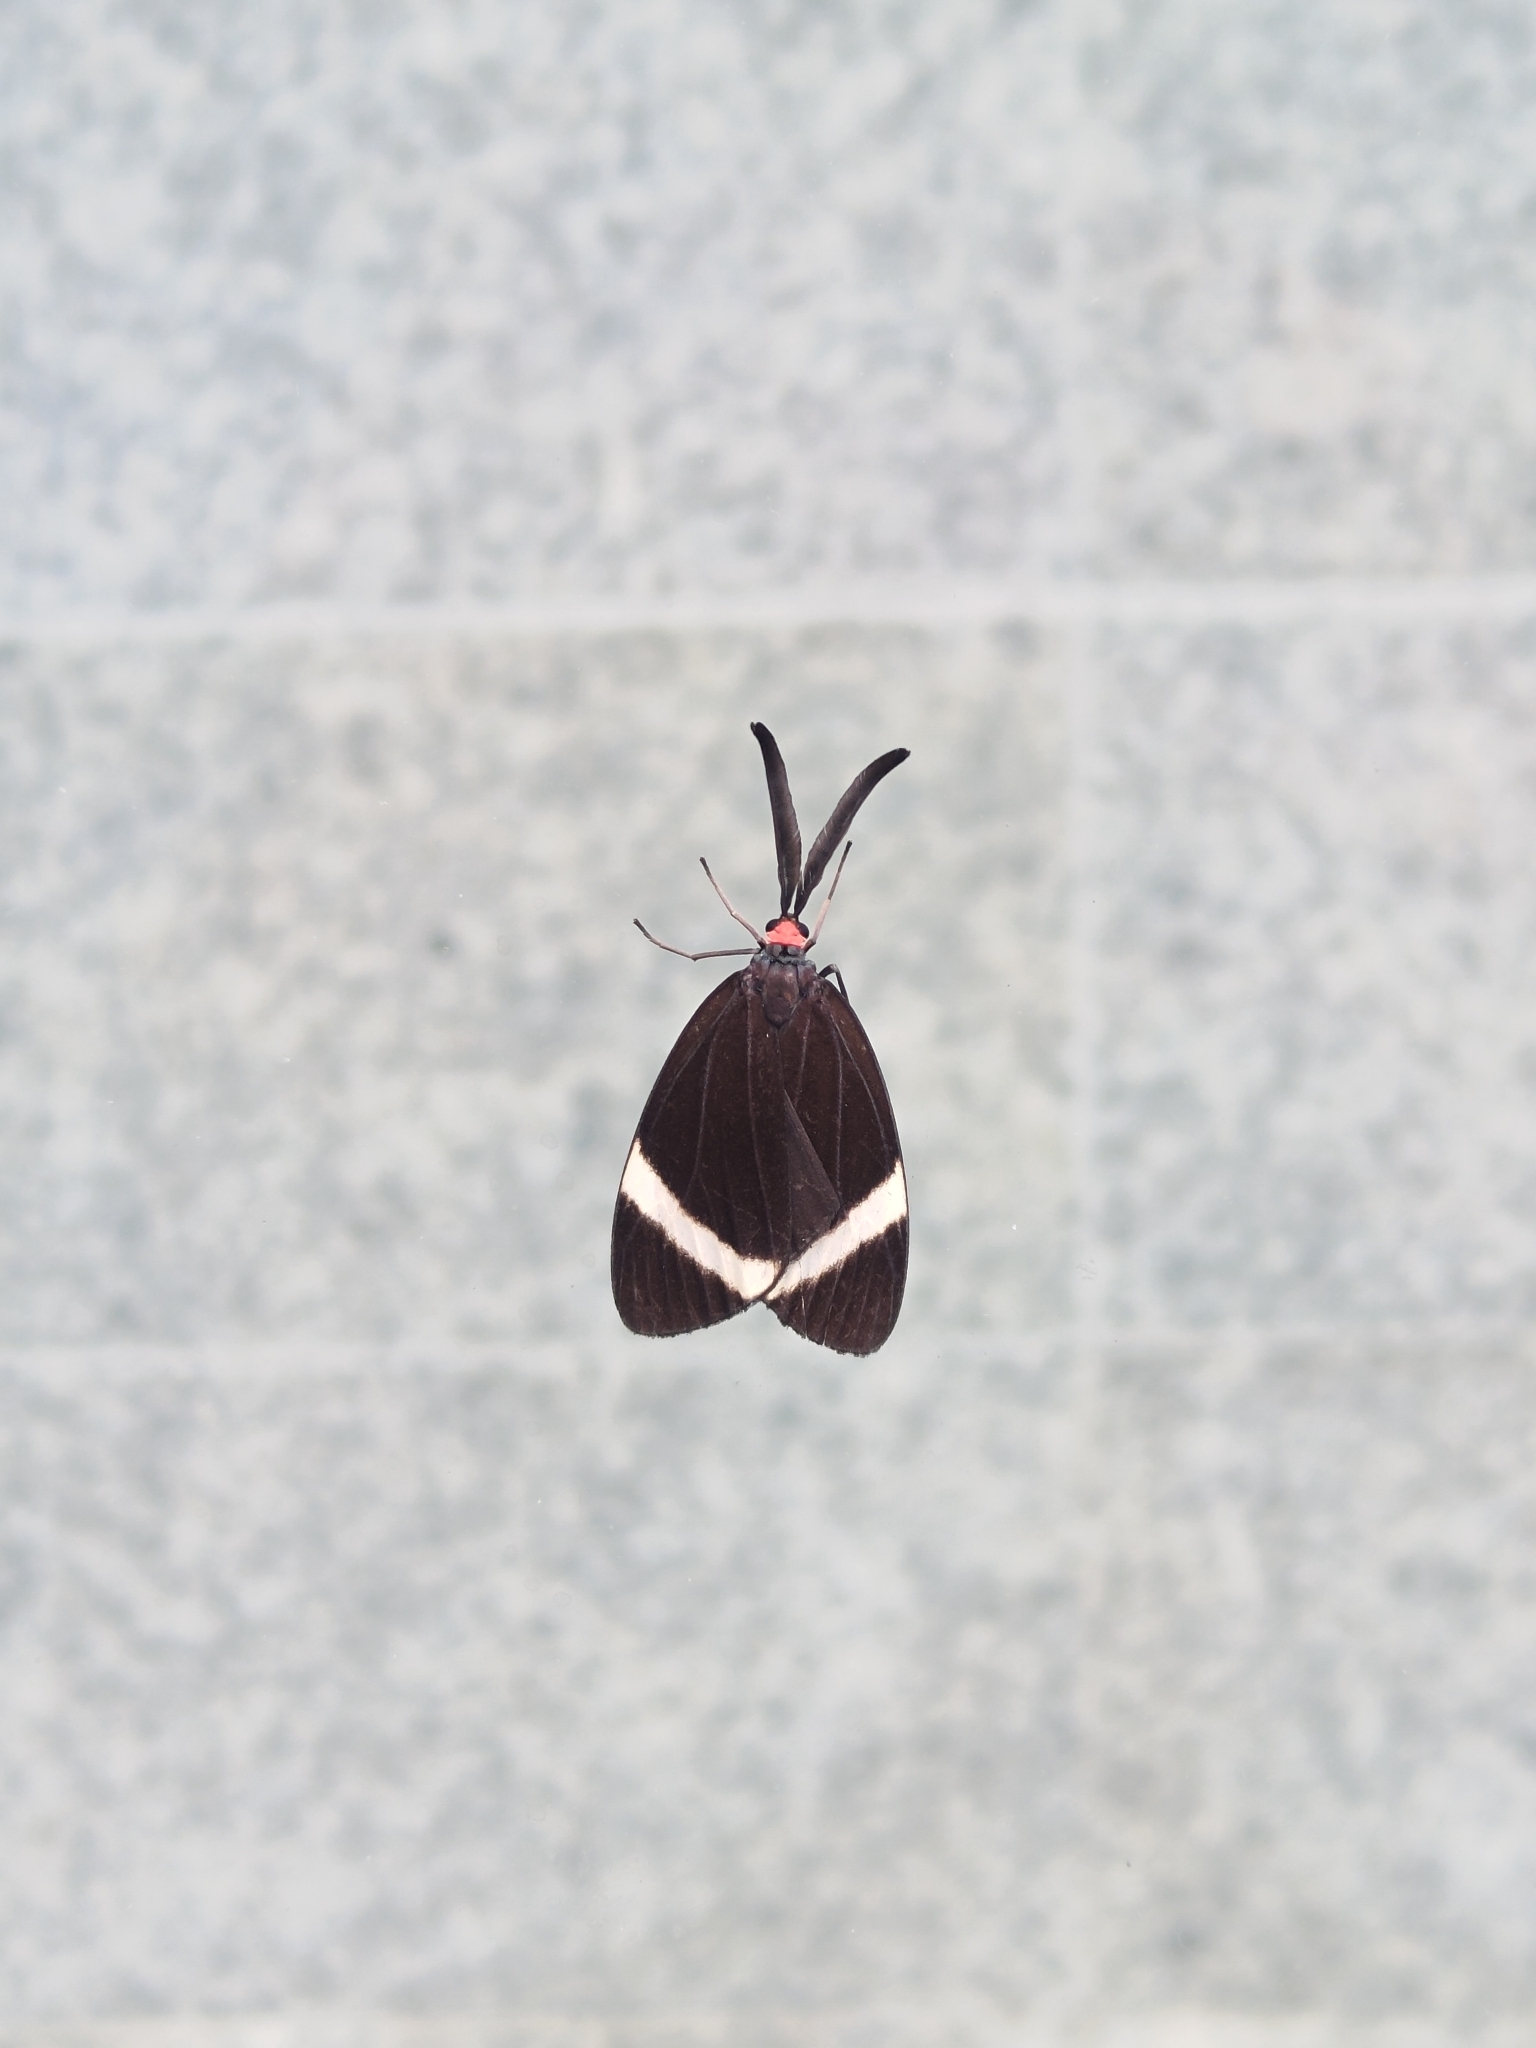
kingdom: Animalia
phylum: Arthropoda
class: Insecta
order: Lepidoptera
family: Zygaenidae
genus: Pidorus
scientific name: Pidorus glaucopis
